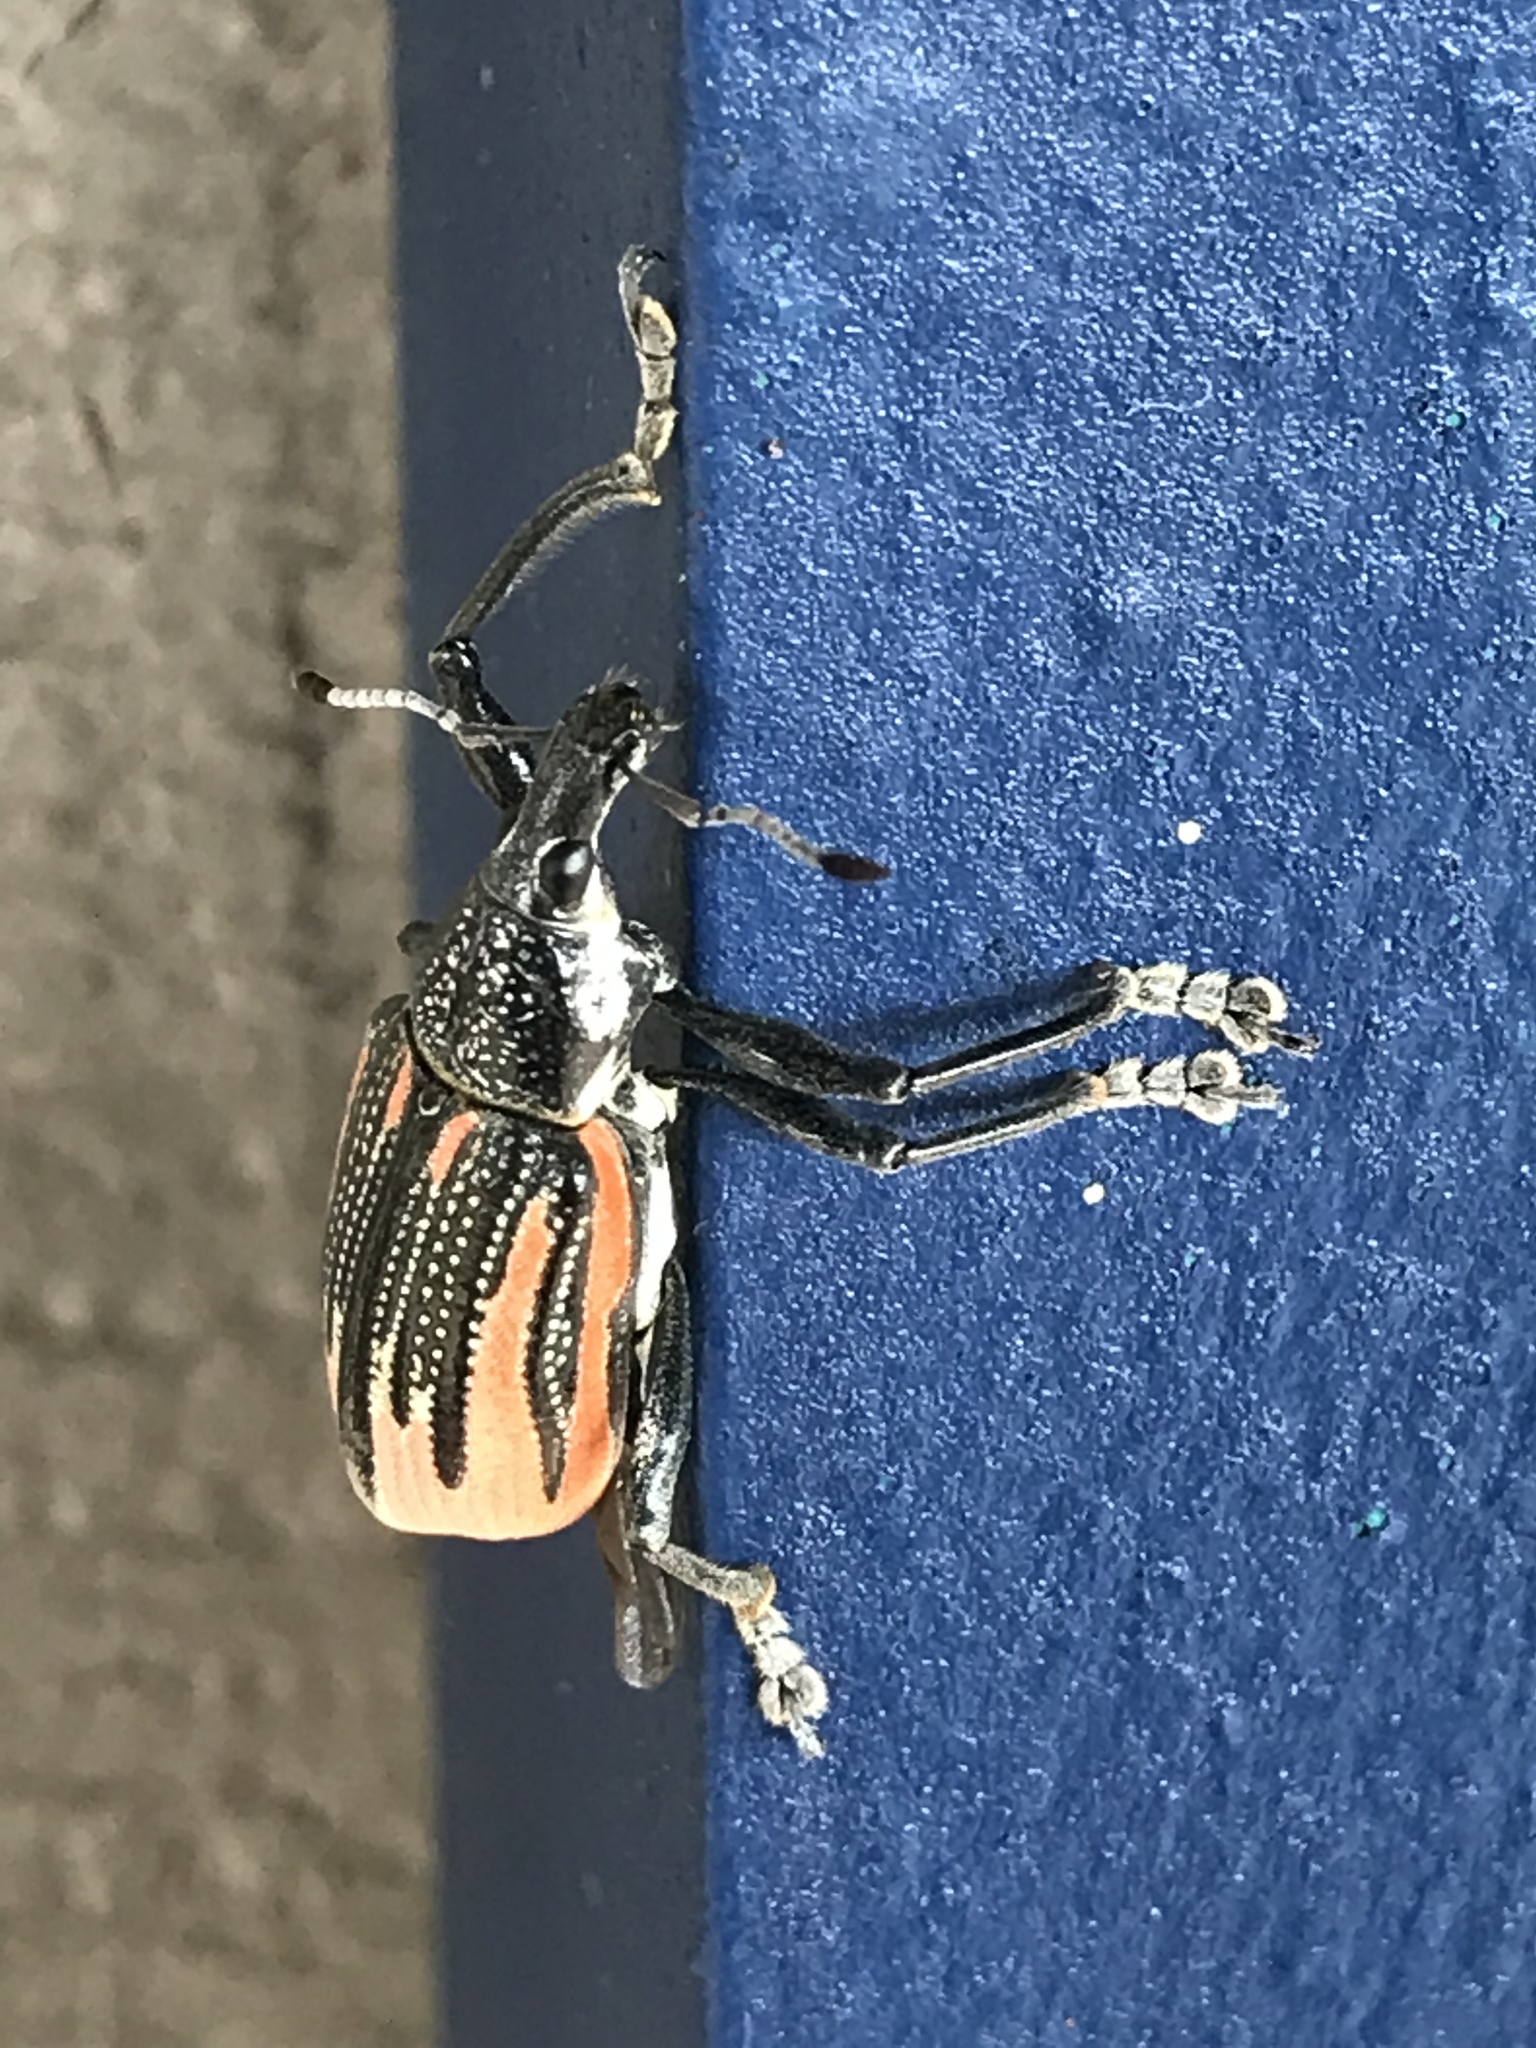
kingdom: Animalia
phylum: Arthropoda
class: Insecta
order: Coleoptera
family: Curculionidae
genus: Diaprepes
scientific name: Diaprepes abbreviatus
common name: Root weevil
